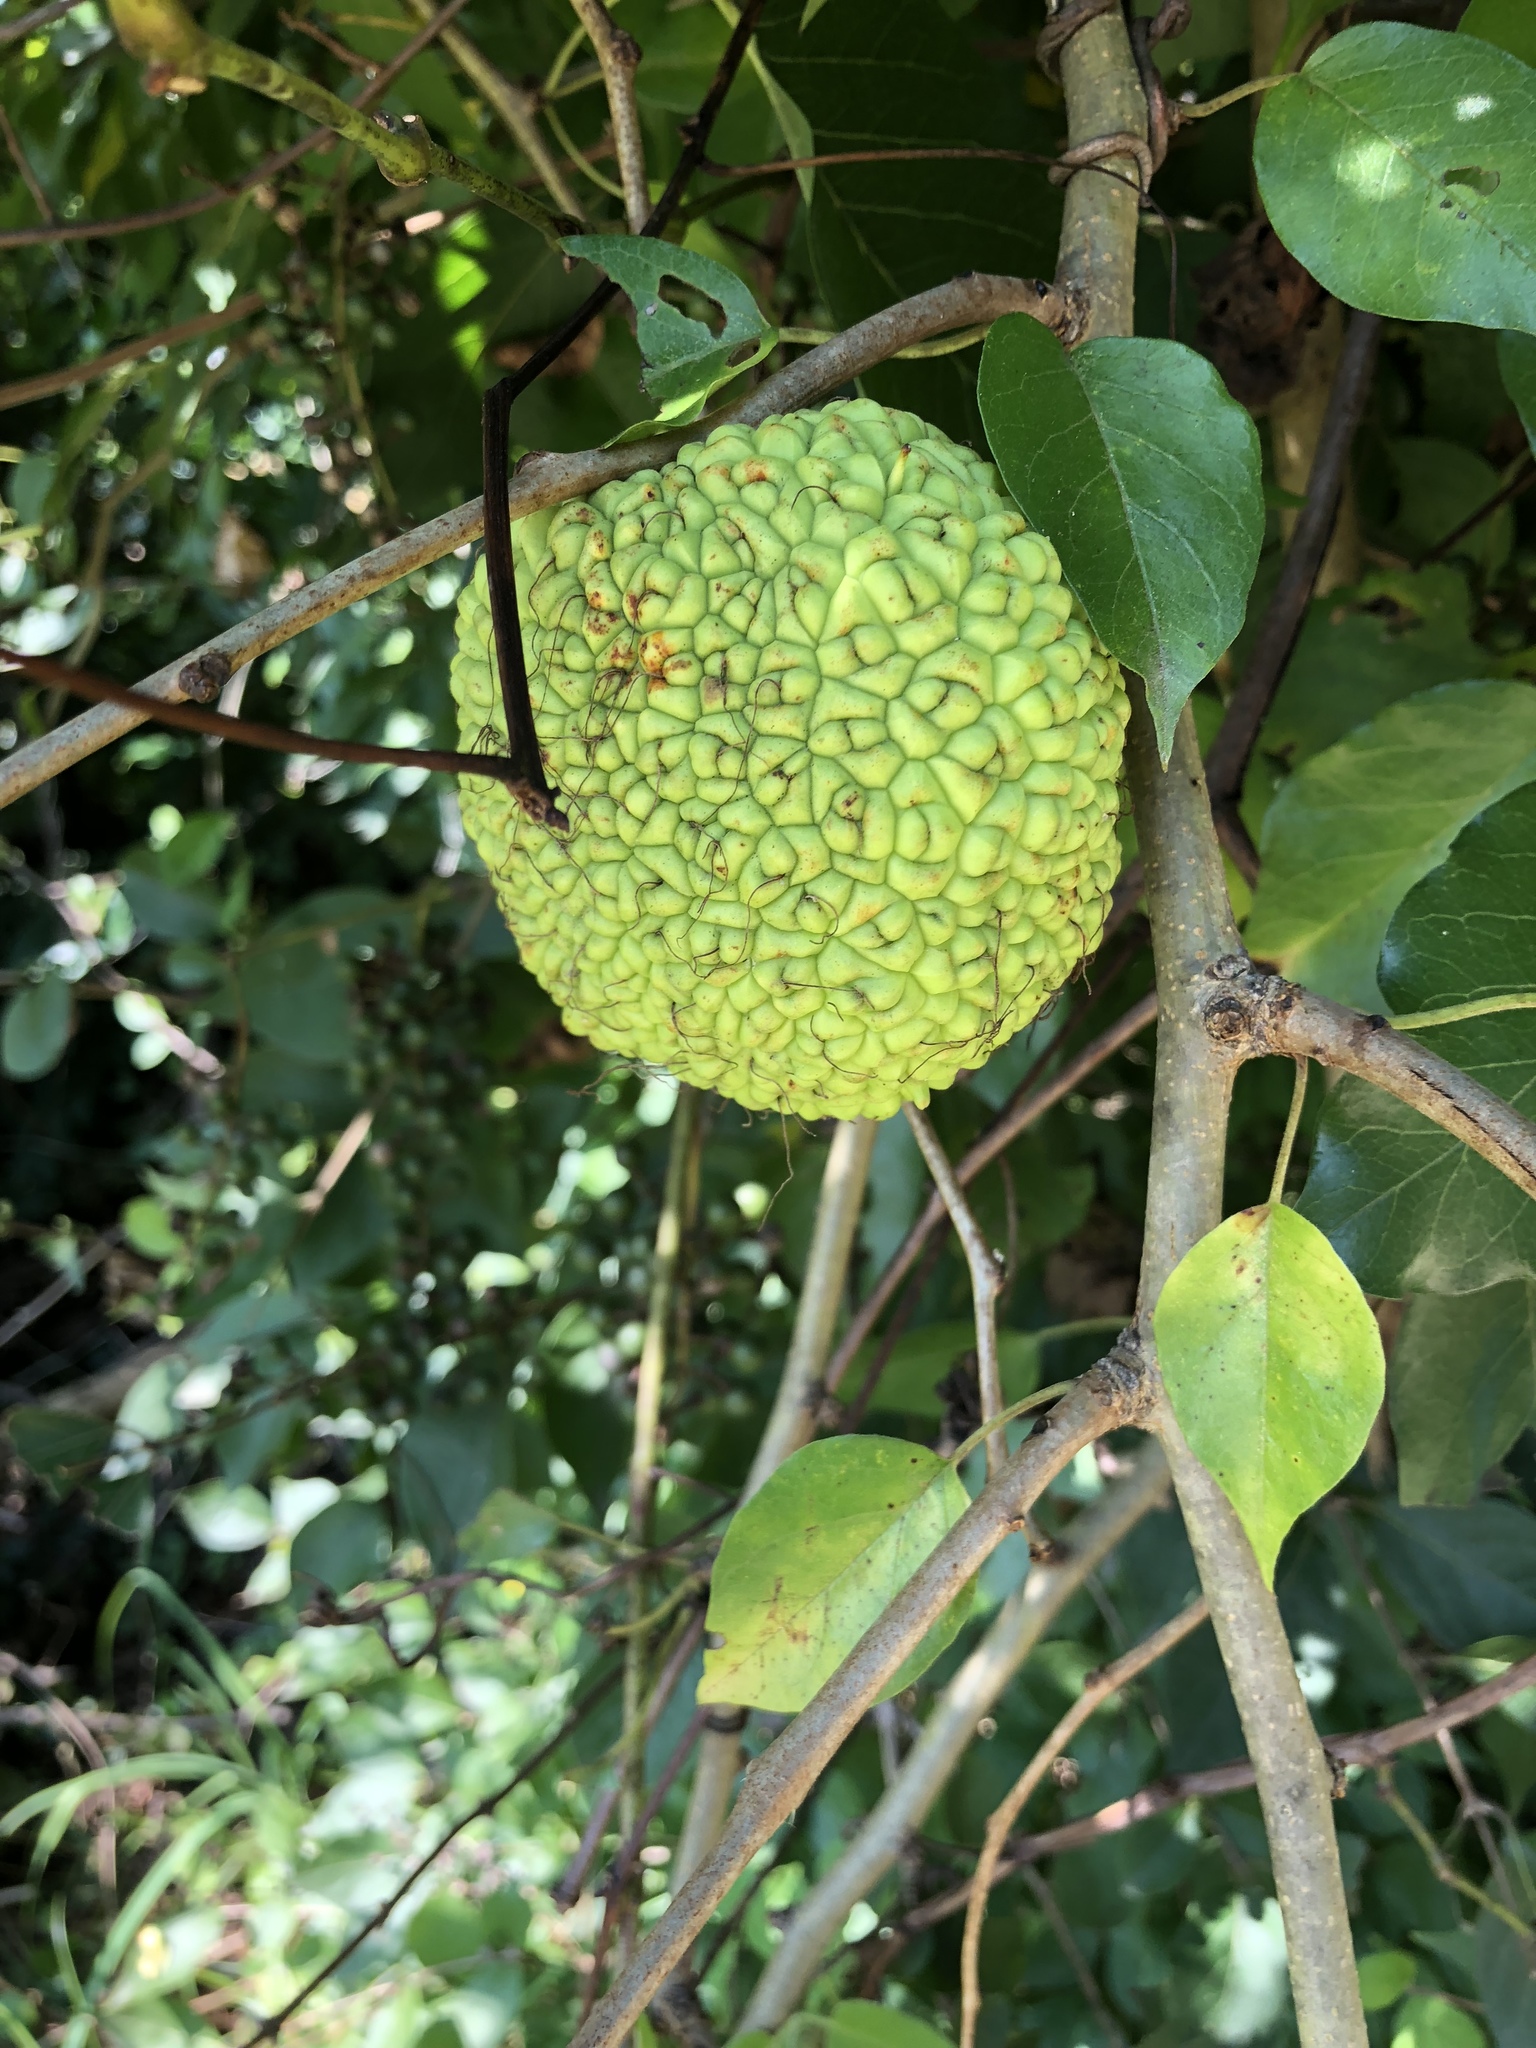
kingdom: Plantae
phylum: Tracheophyta
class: Magnoliopsida
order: Rosales
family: Moraceae
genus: Maclura
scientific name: Maclura pomifera
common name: Osage-orange
